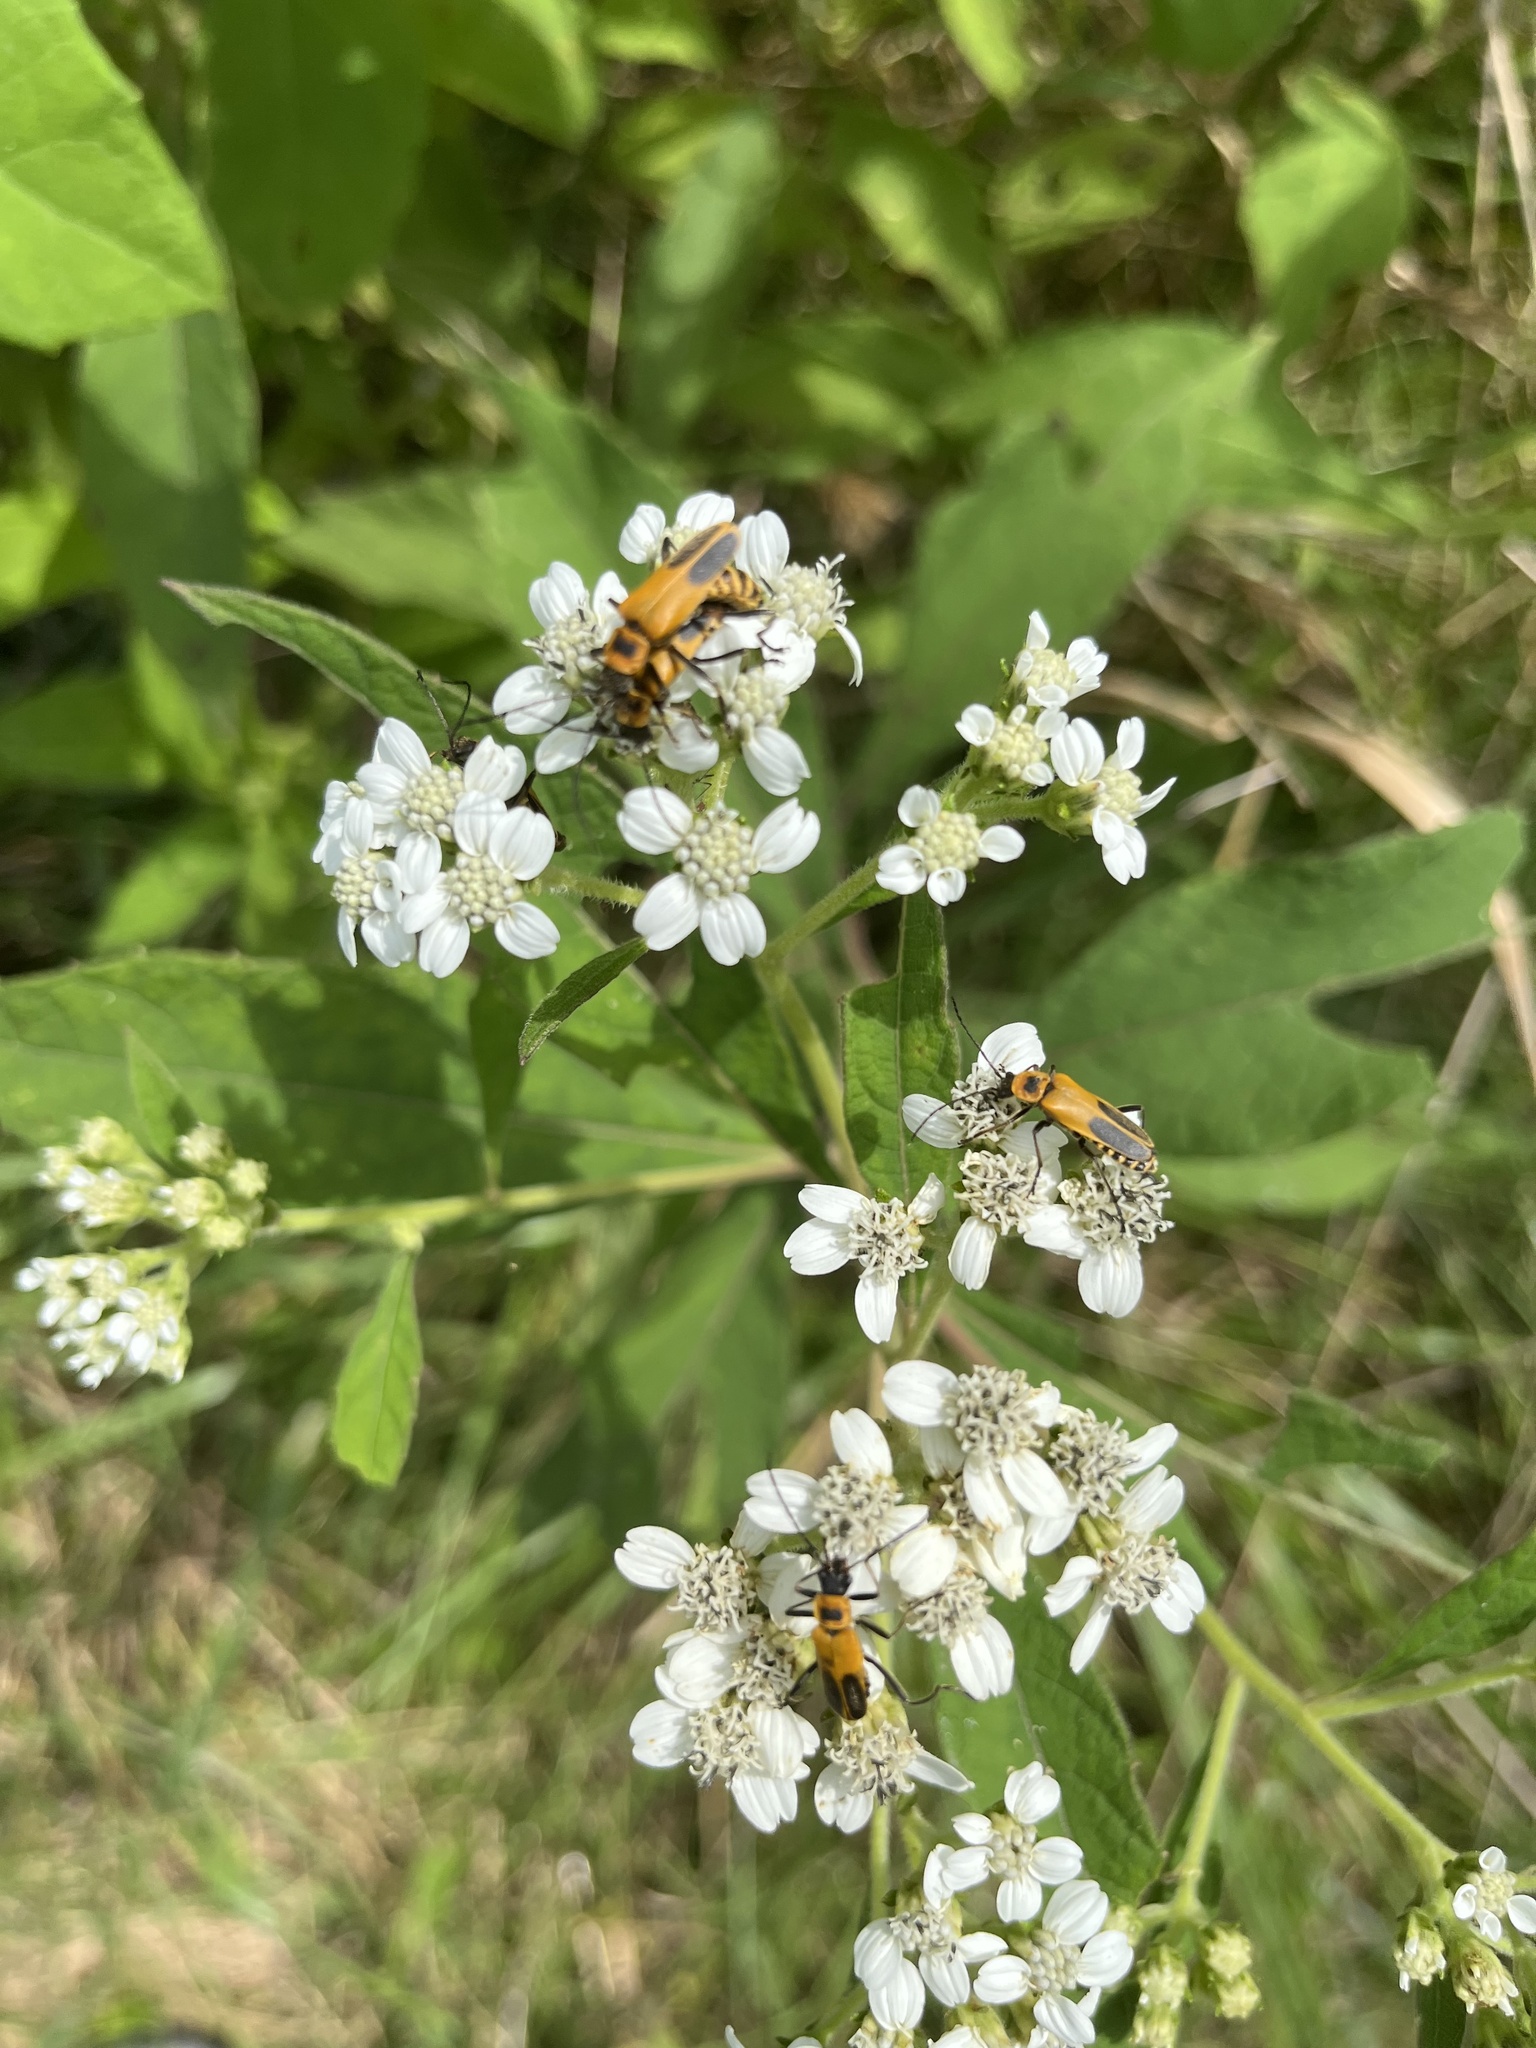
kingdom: Animalia
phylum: Arthropoda
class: Insecta
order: Coleoptera
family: Cantharidae
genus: Chauliognathus
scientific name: Chauliognathus pensylvanicus
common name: Goldenrod soldier beetle
